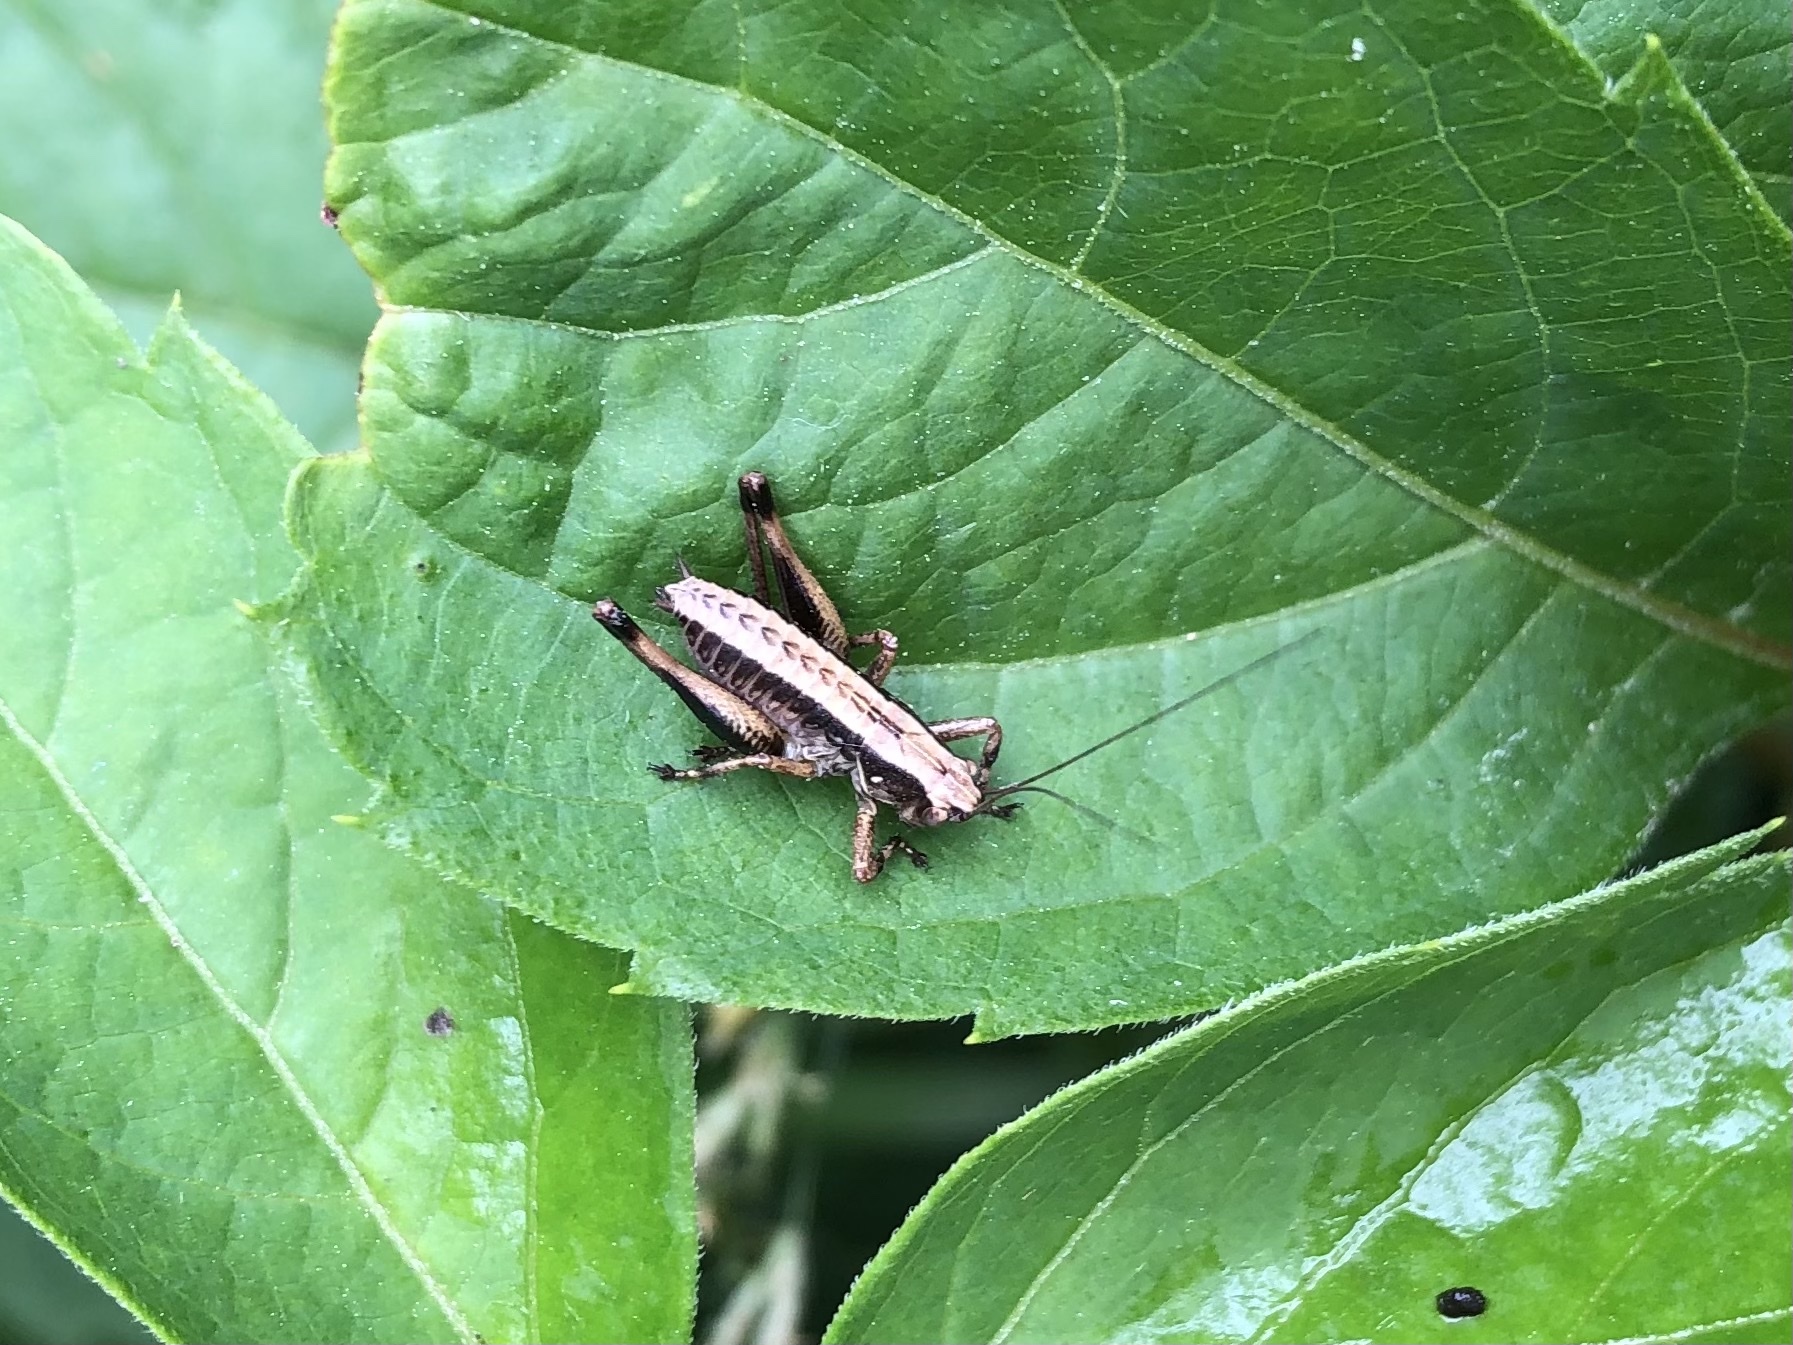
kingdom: Animalia
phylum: Arthropoda
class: Insecta
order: Orthoptera
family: Tettigoniidae
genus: Pholidoptera
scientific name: Pholidoptera griseoaptera
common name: Dark bush-cricket
